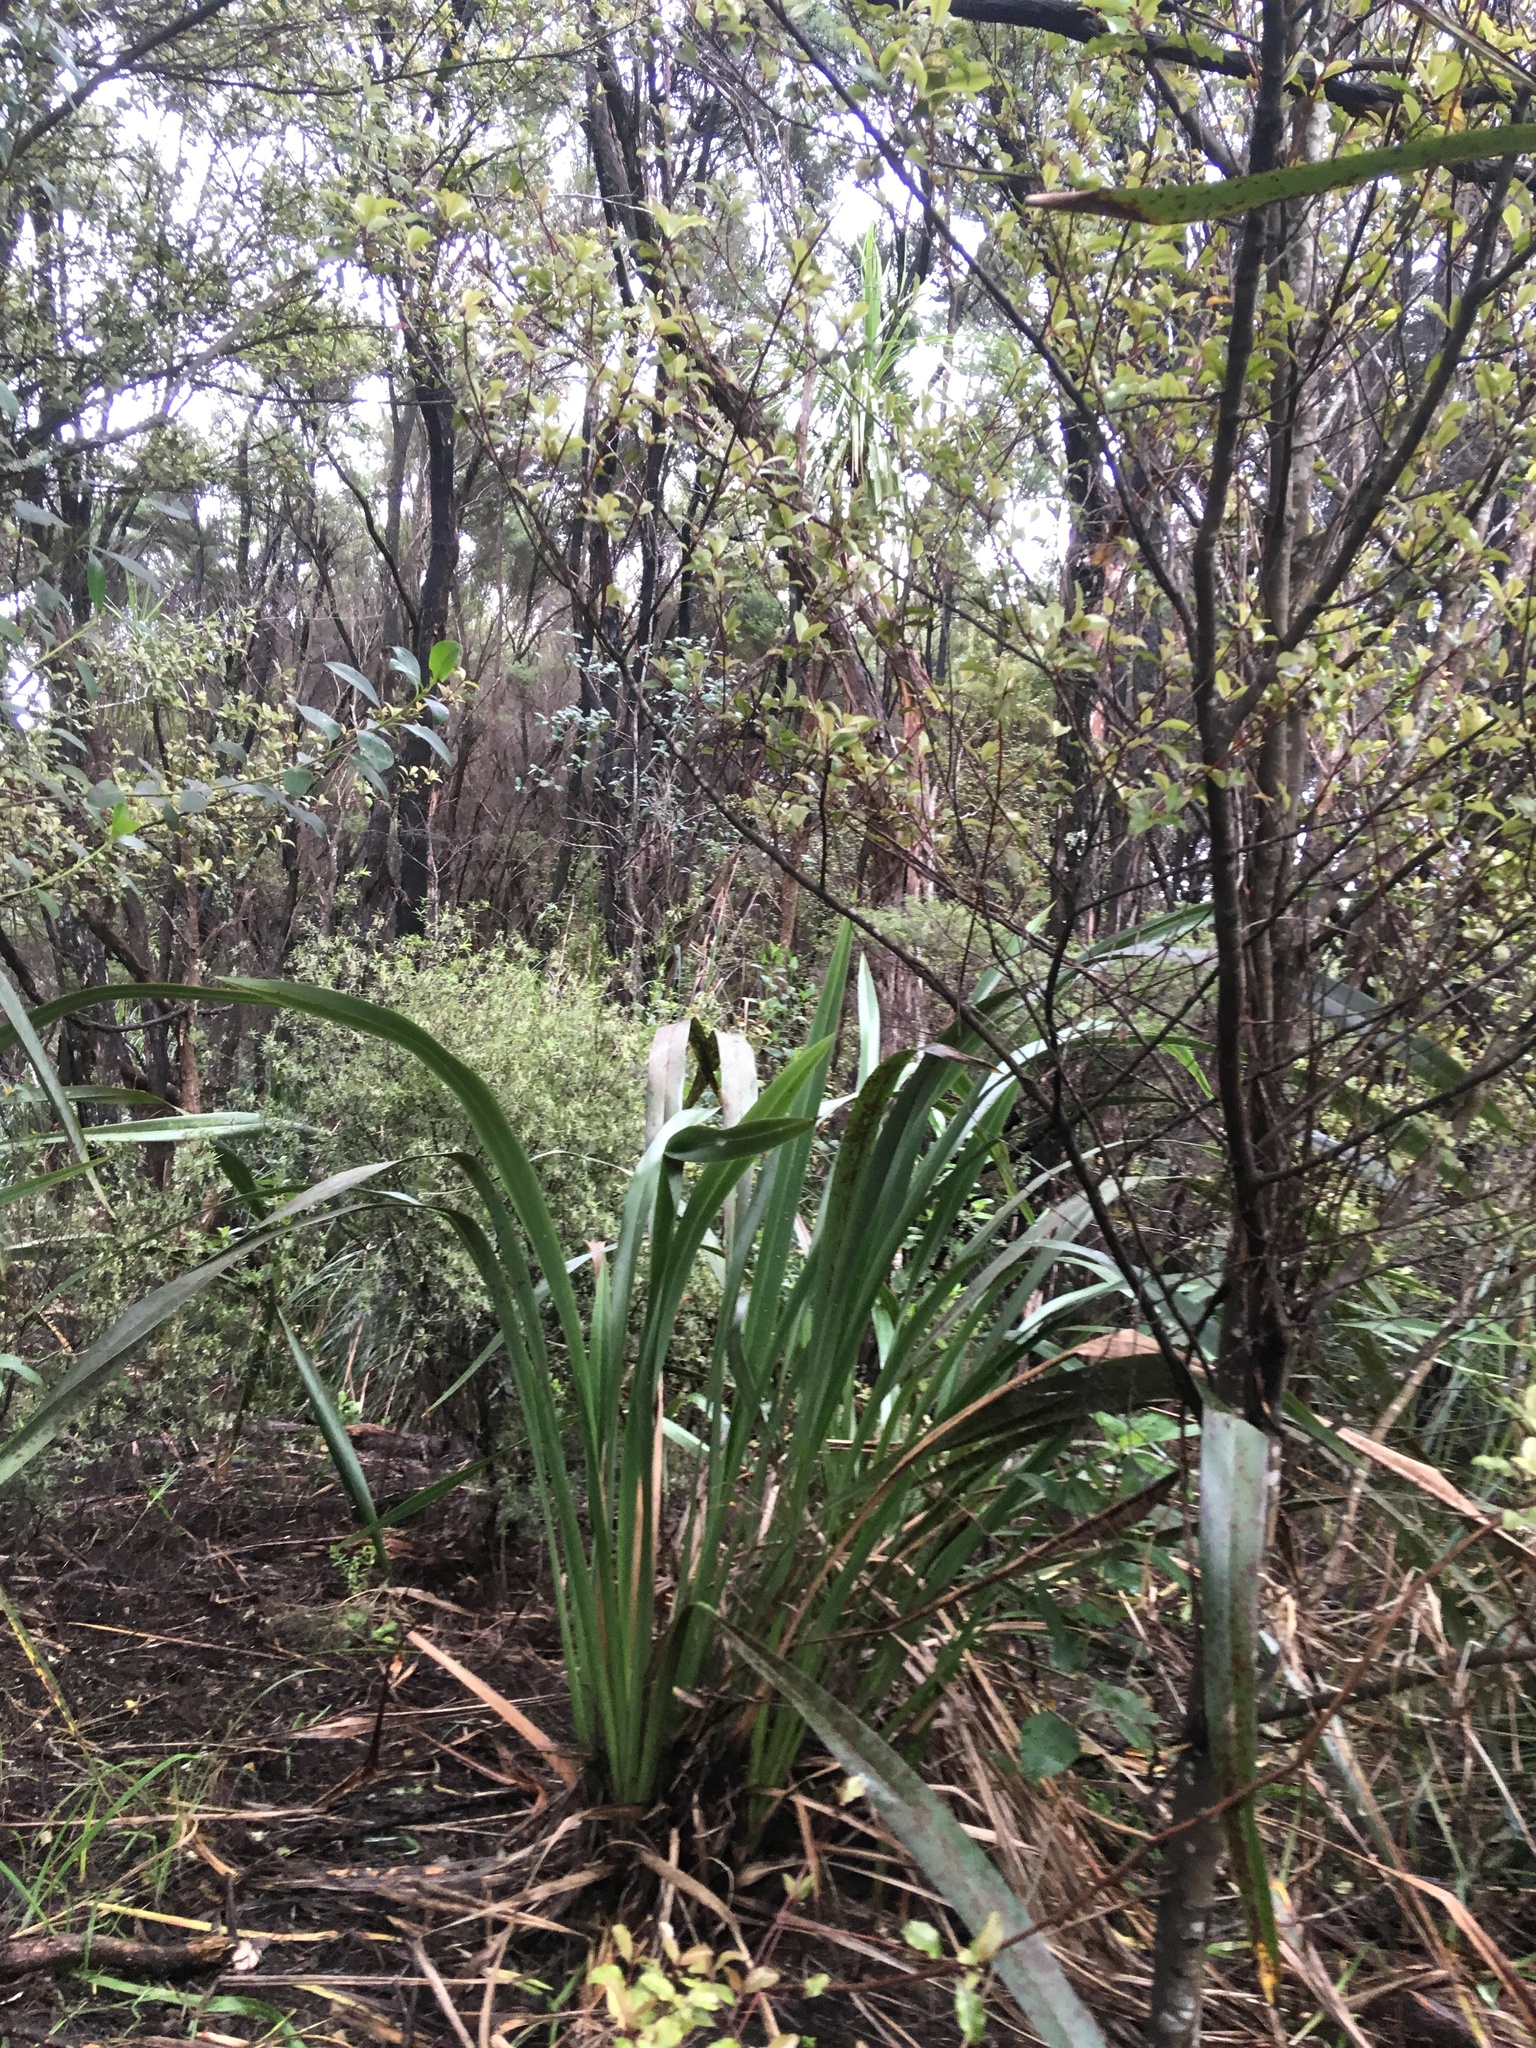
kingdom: Plantae
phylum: Tracheophyta
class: Magnoliopsida
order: Ericales
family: Primulaceae
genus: Myrsine
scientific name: Myrsine australis
